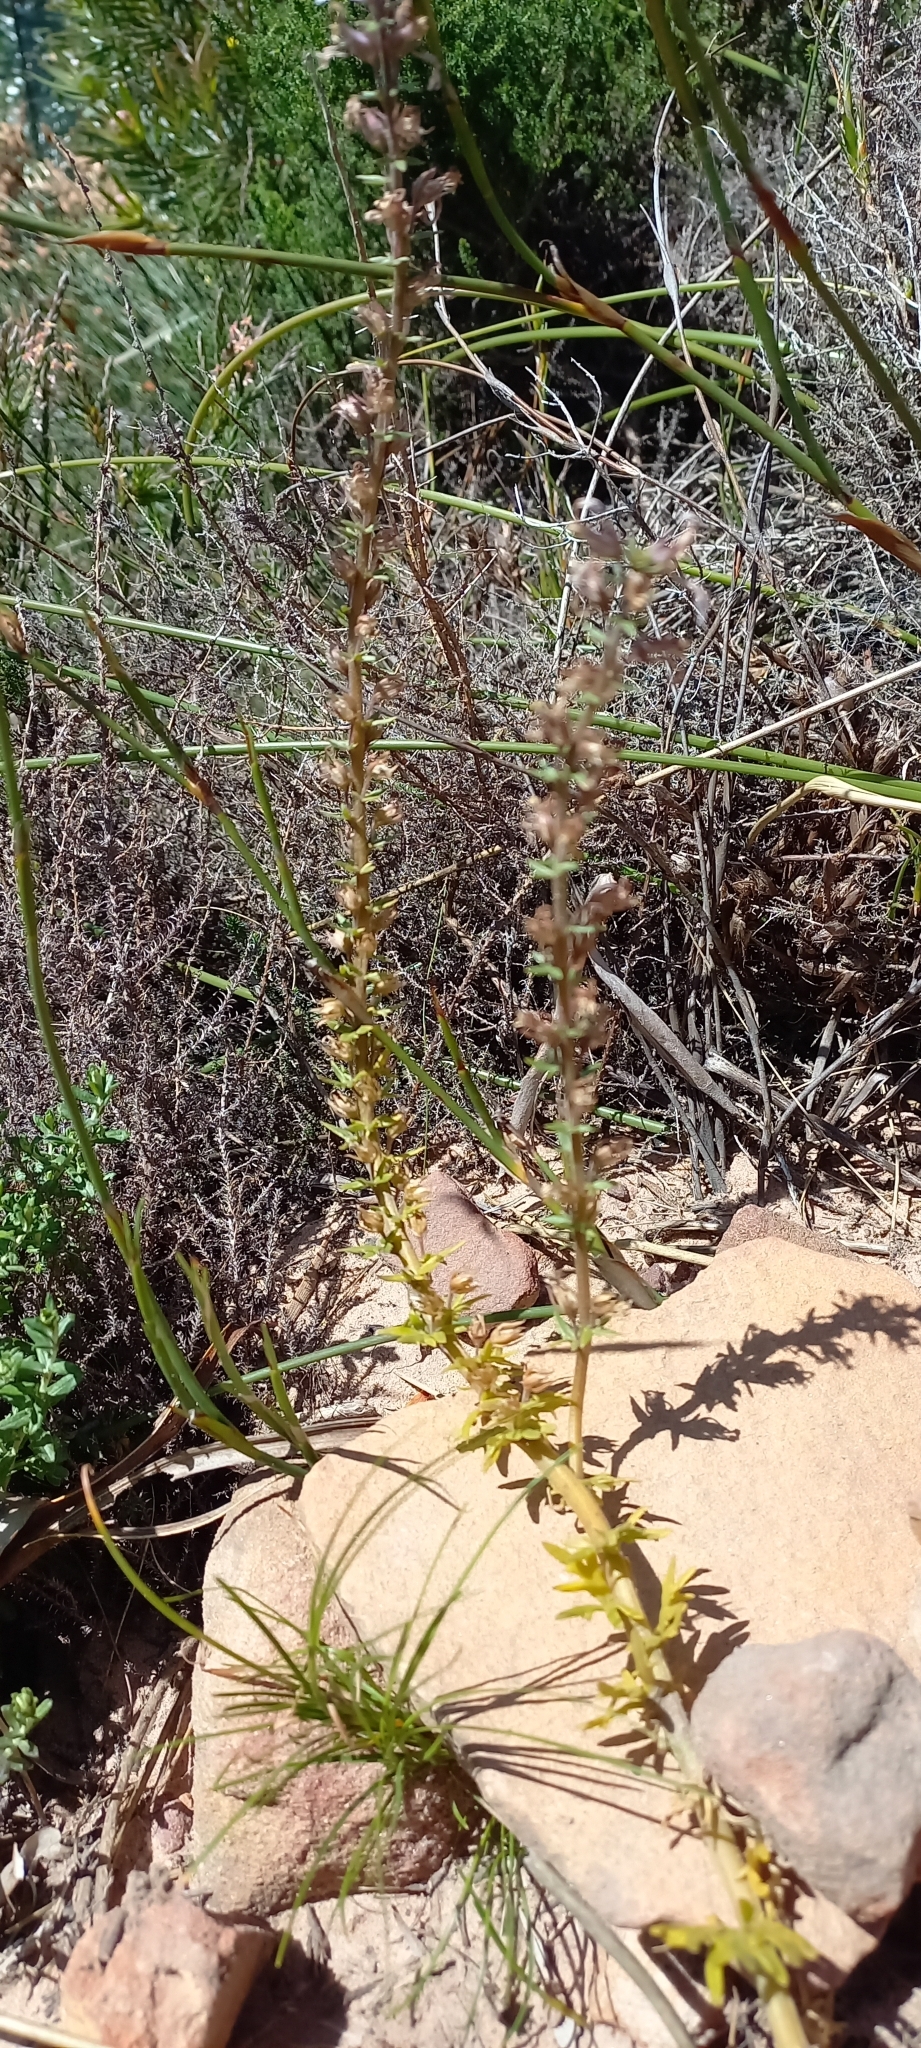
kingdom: Plantae
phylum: Tracheophyta
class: Magnoliopsida
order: Asterales
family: Campanulaceae
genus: Cyphia
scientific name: Cyphia bulbosa
